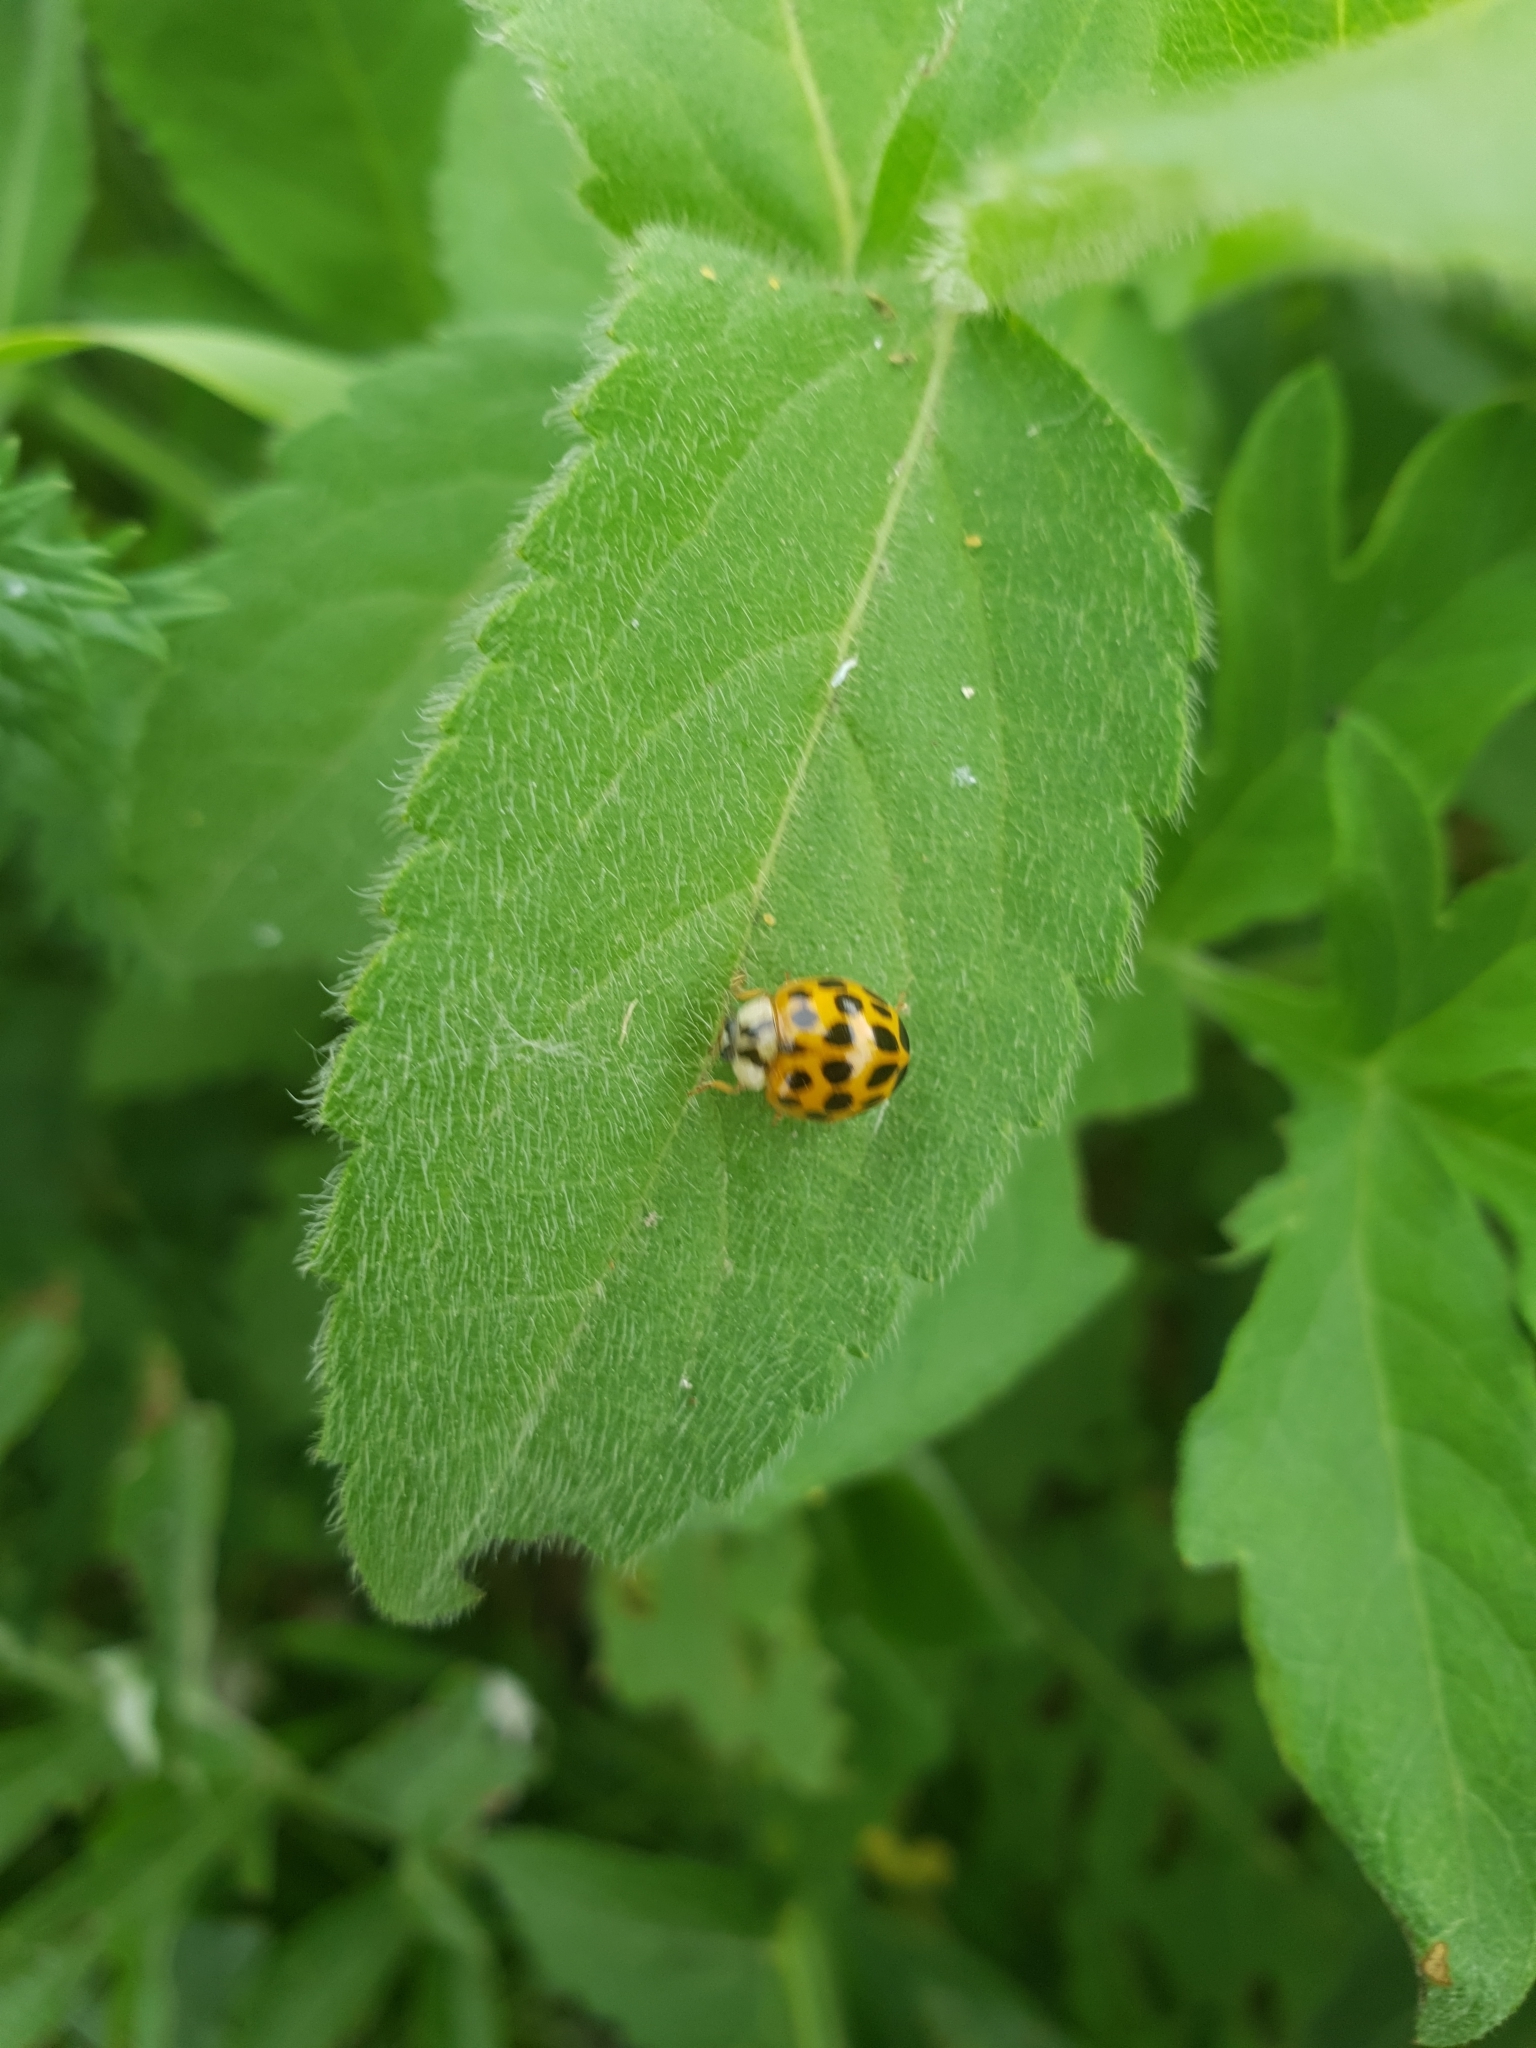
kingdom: Animalia
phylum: Arthropoda
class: Insecta
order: Coleoptera
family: Coccinellidae
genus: Harmonia
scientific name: Harmonia axyridis
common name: Harlequin ladybird
